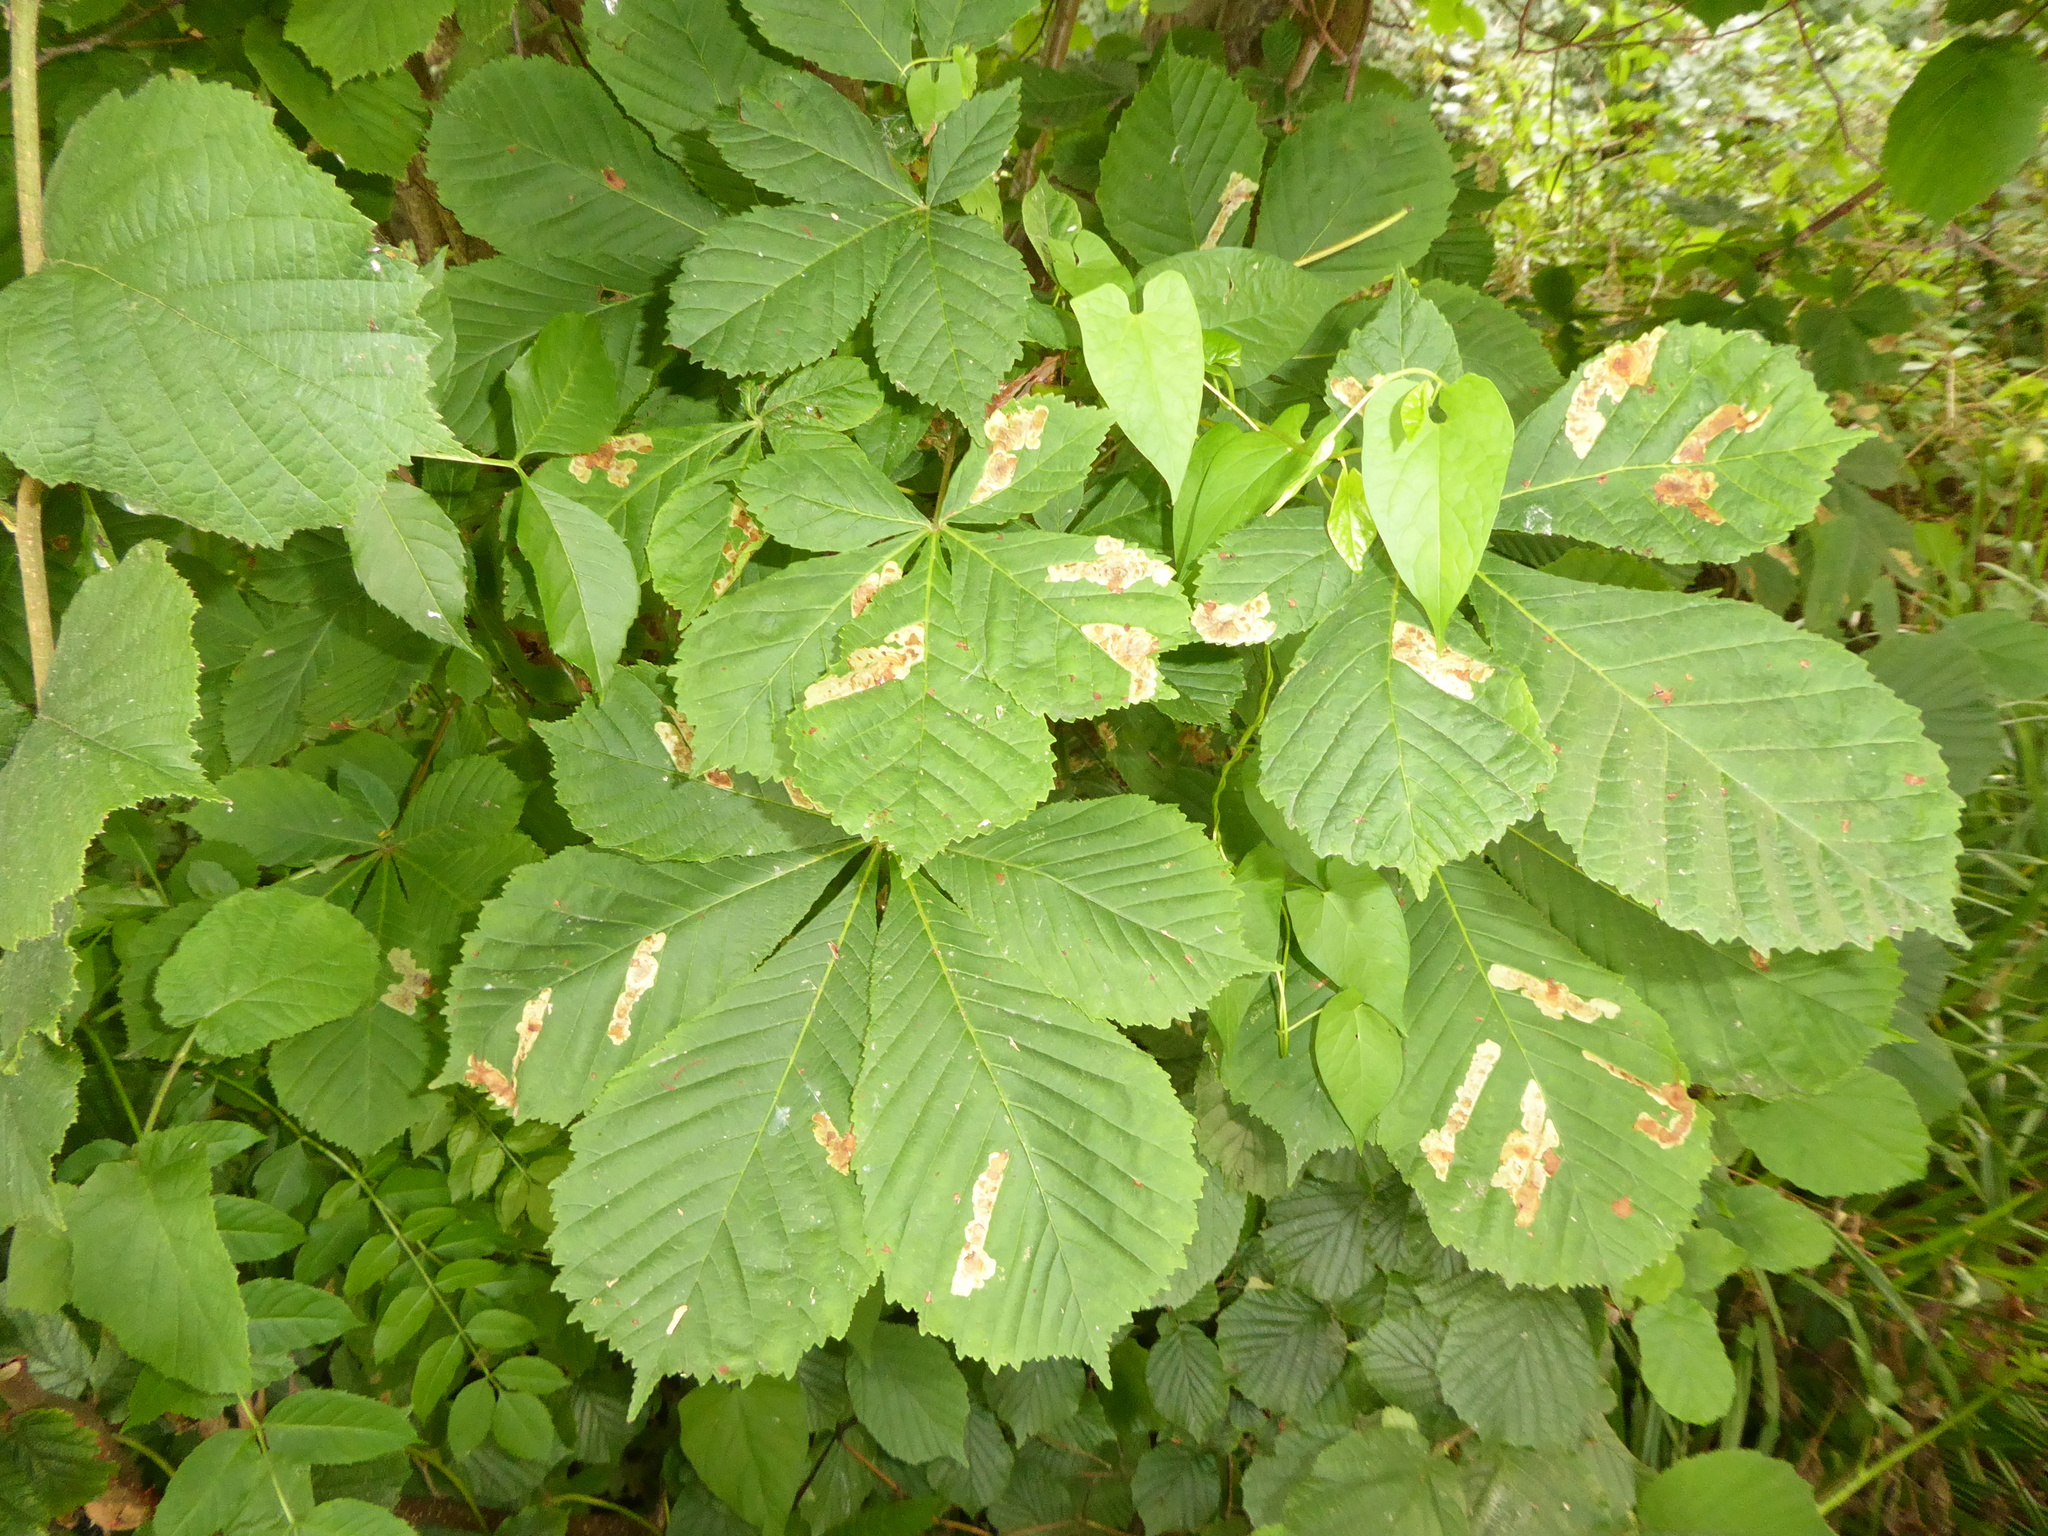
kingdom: Animalia
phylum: Arthropoda
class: Insecta
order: Lepidoptera
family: Gracillariidae
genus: Cameraria
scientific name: Cameraria ohridella
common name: Horse-chestnut leaf-miner
